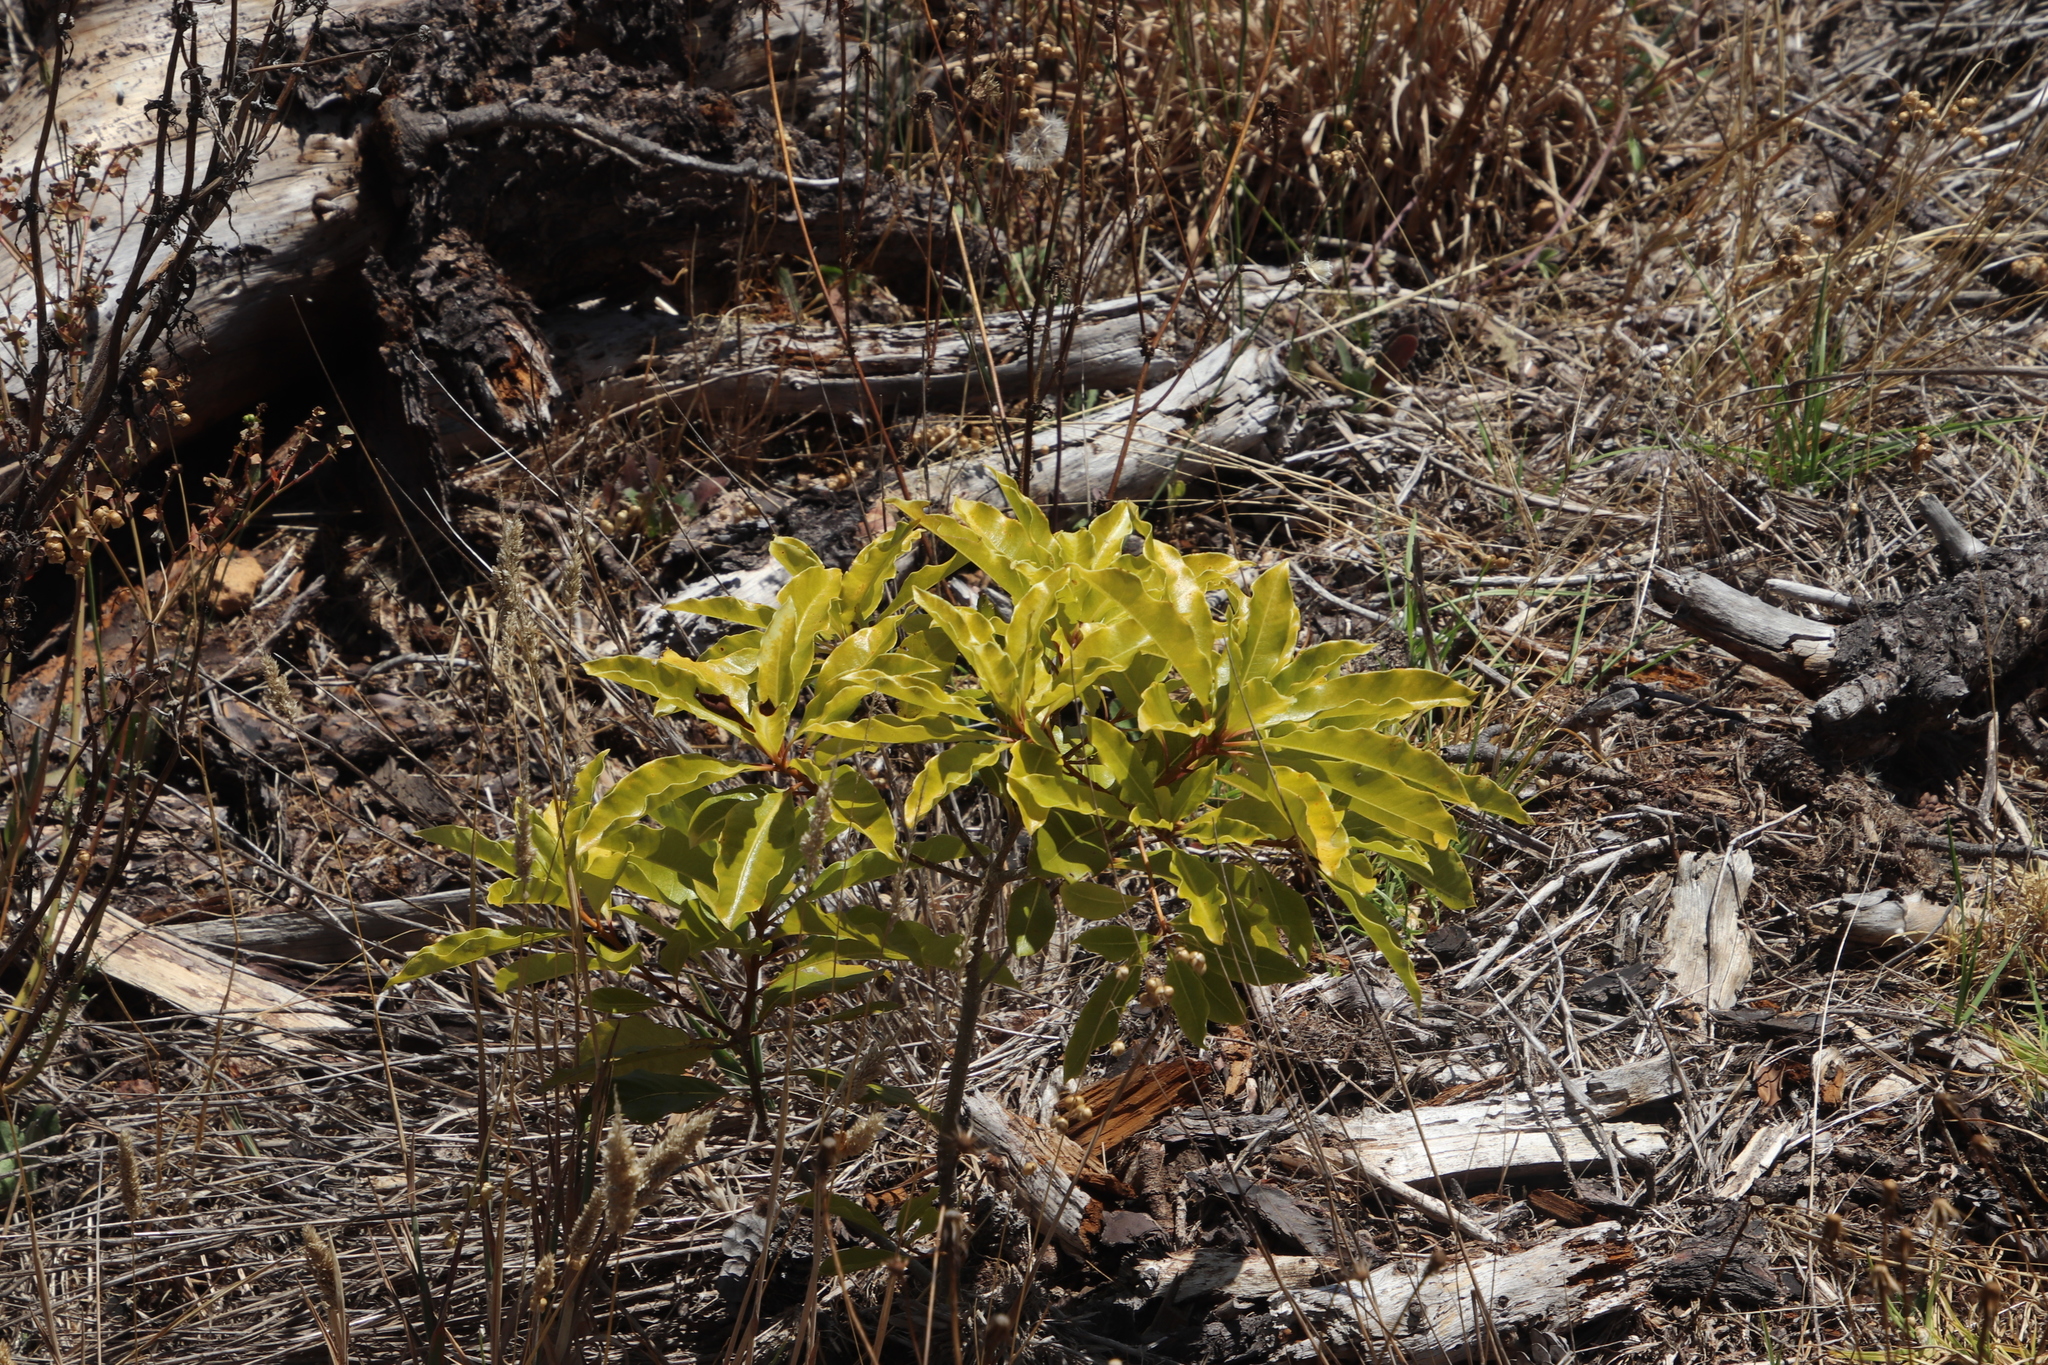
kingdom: Plantae
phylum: Tracheophyta
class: Magnoliopsida
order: Laurales
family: Lauraceae
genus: Cinnamomum
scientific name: Cinnamomum camphora
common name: Camphortree
